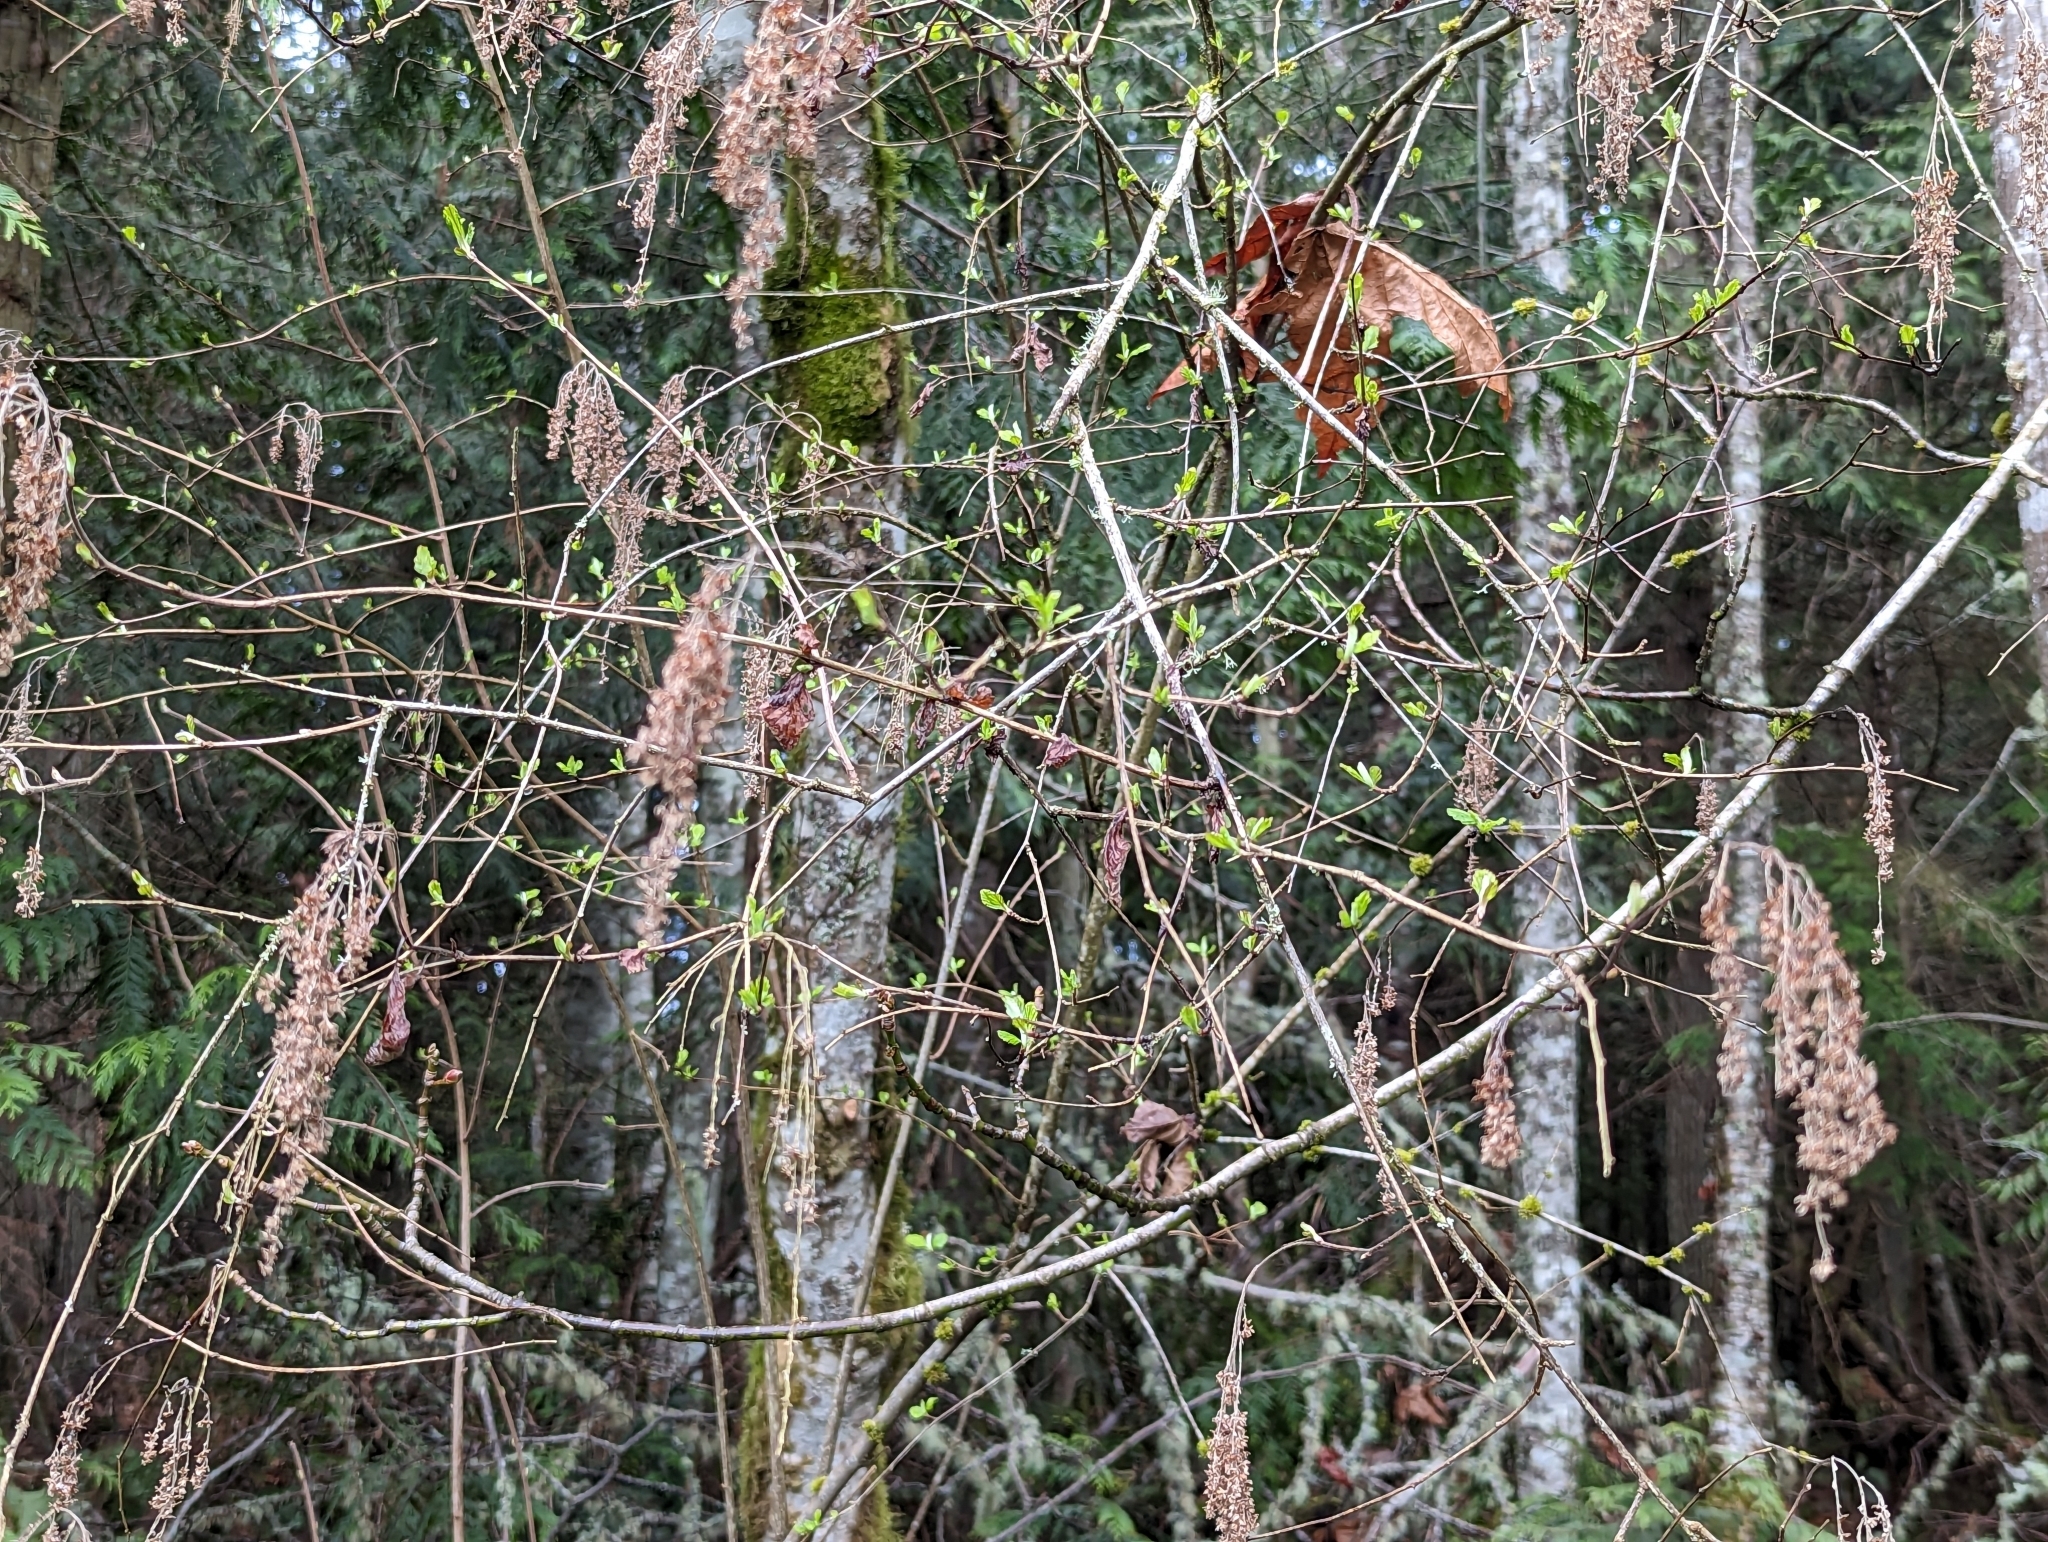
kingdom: Plantae
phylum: Tracheophyta
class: Magnoliopsida
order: Rosales
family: Rosaceae
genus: Holodiscus
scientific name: Holodiscus discolor
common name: Oceanspray
